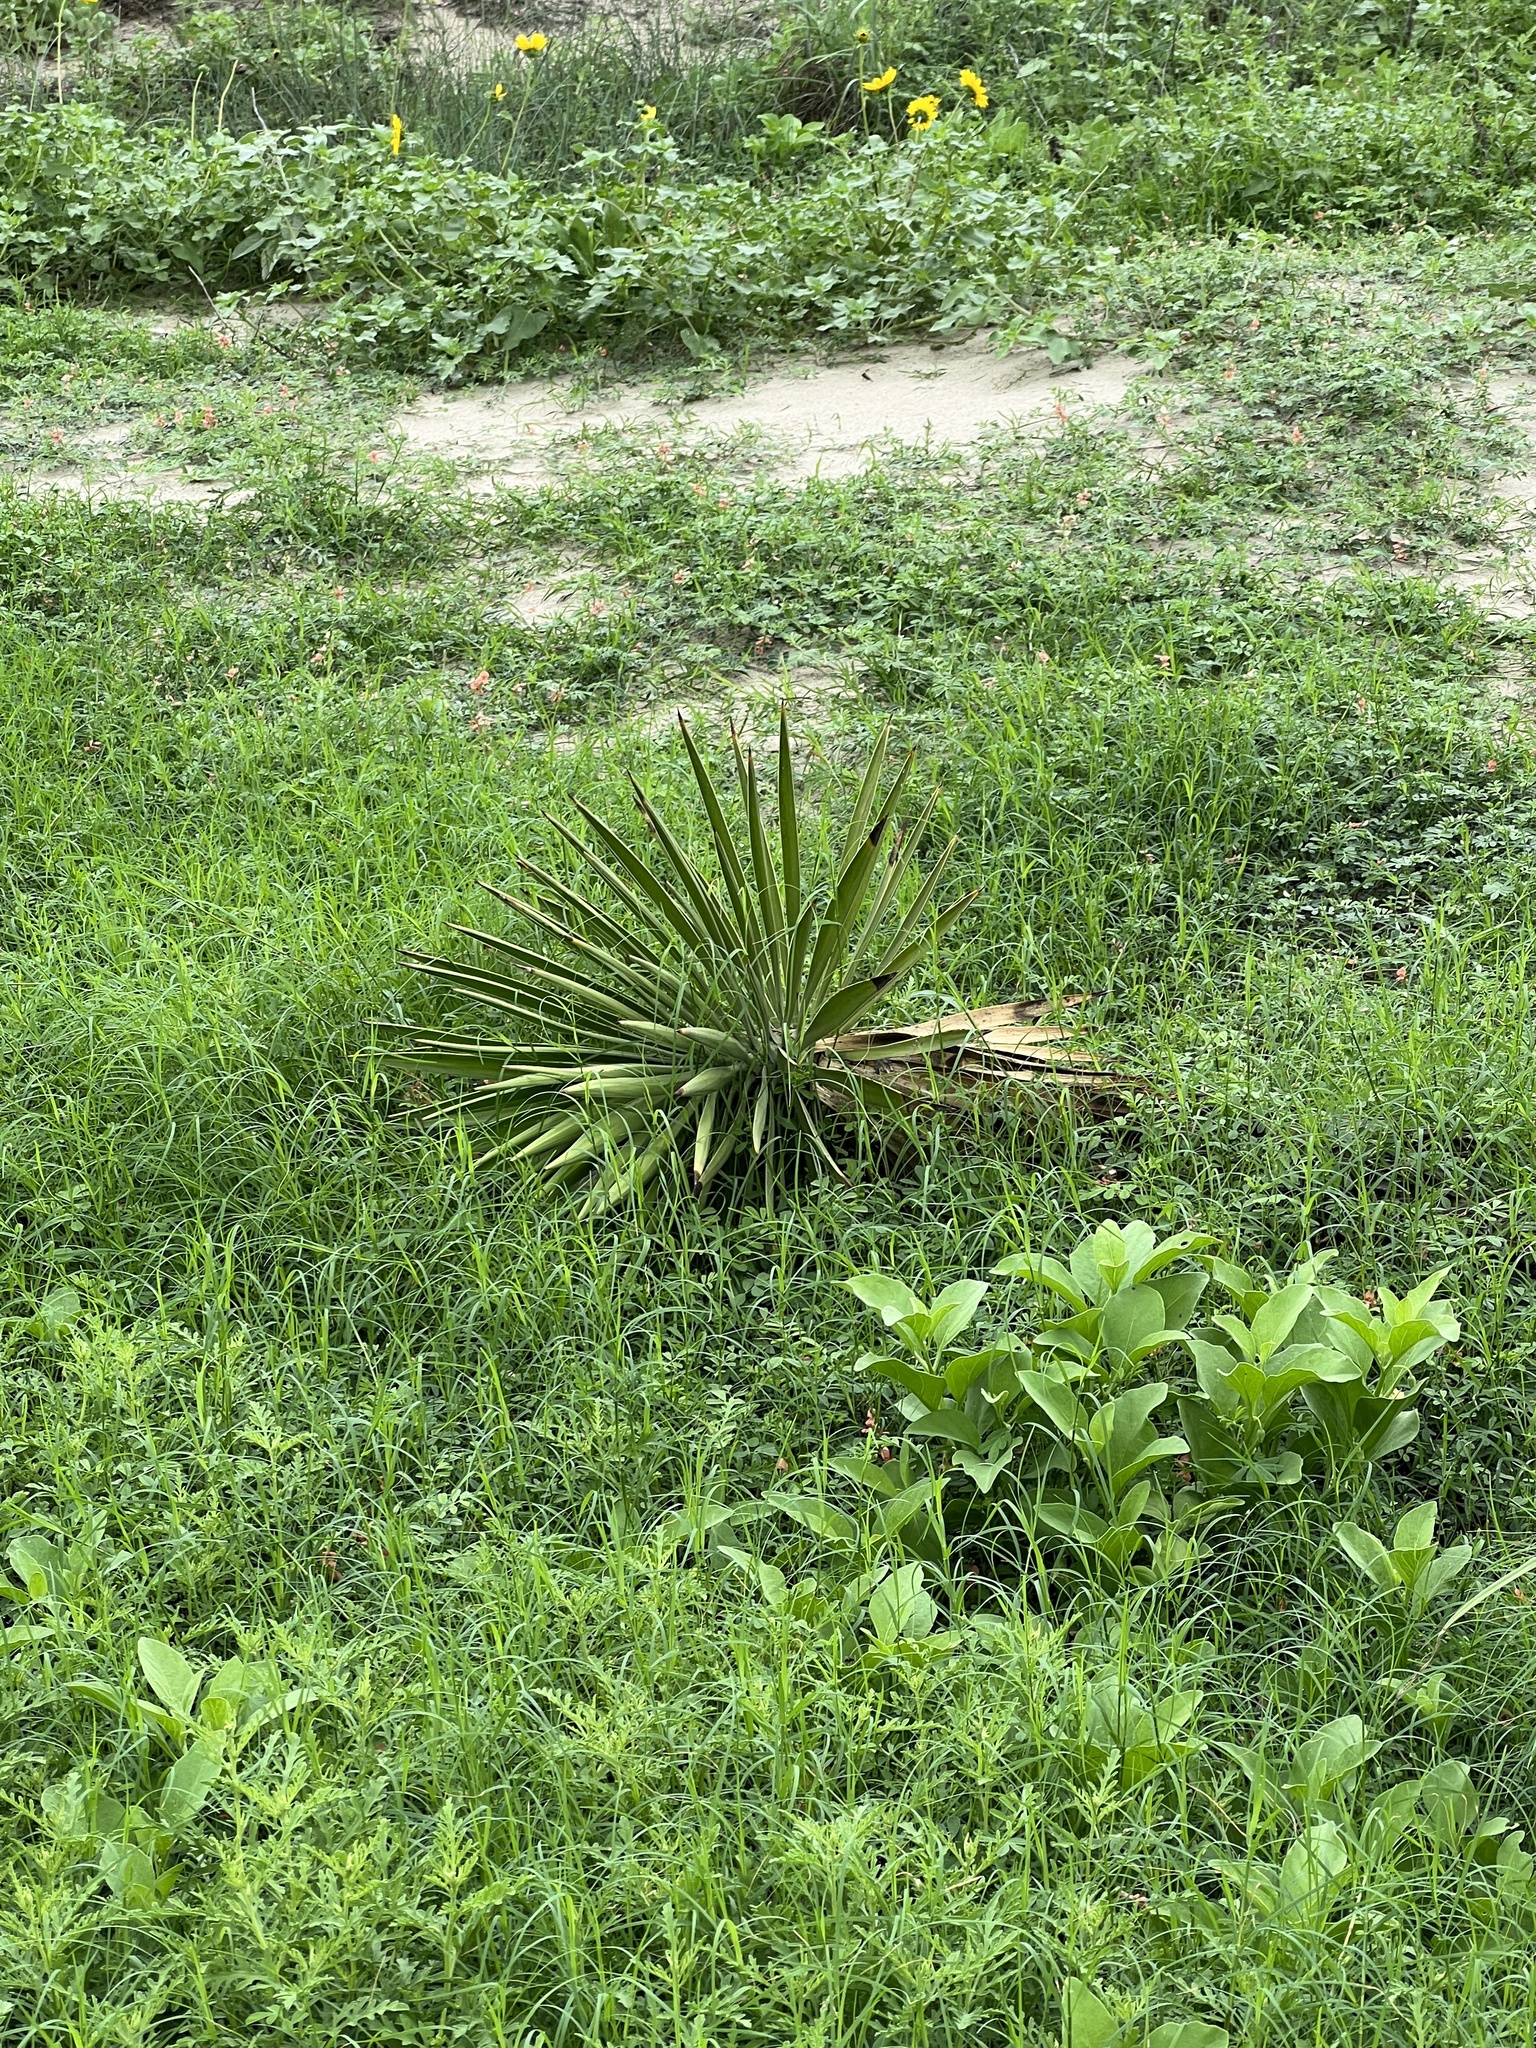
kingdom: Plantae
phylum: Tracheophyta
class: Liliopsida
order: Asparagales
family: Asparagaceae
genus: Yucca
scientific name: Yucca aloifolia
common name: Aloe yucca
